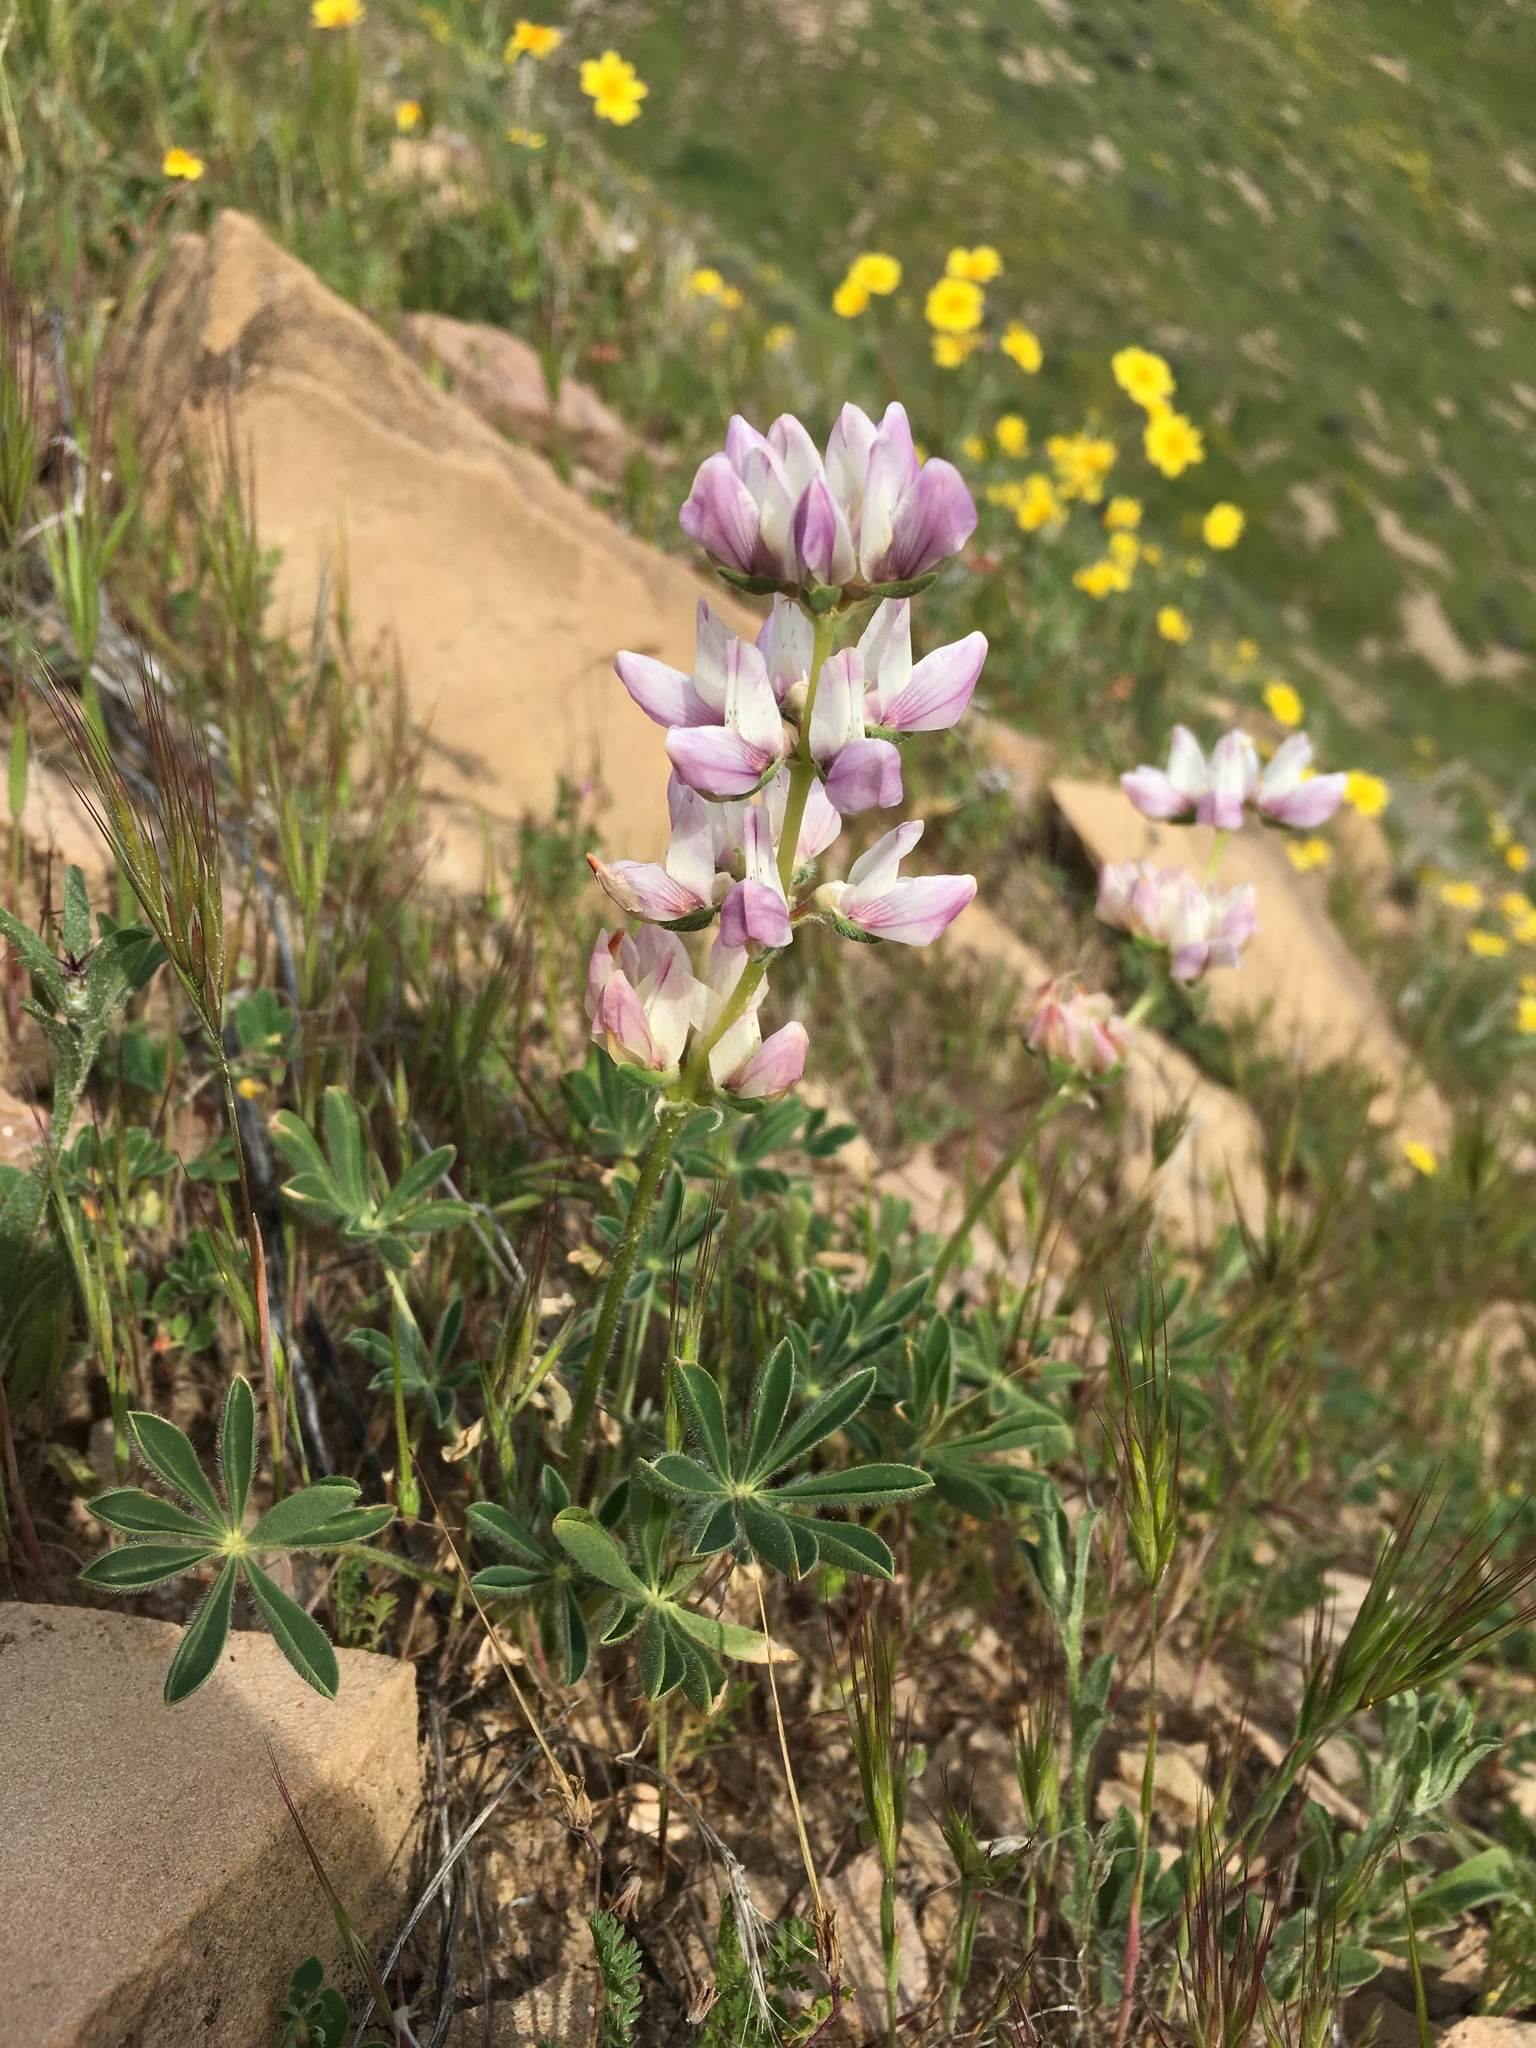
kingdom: Plantae
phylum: Tracheophyta
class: Magnoliopsida
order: Fabales
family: Fabaceae
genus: Lupinus
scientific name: Lupinus horizontalis
